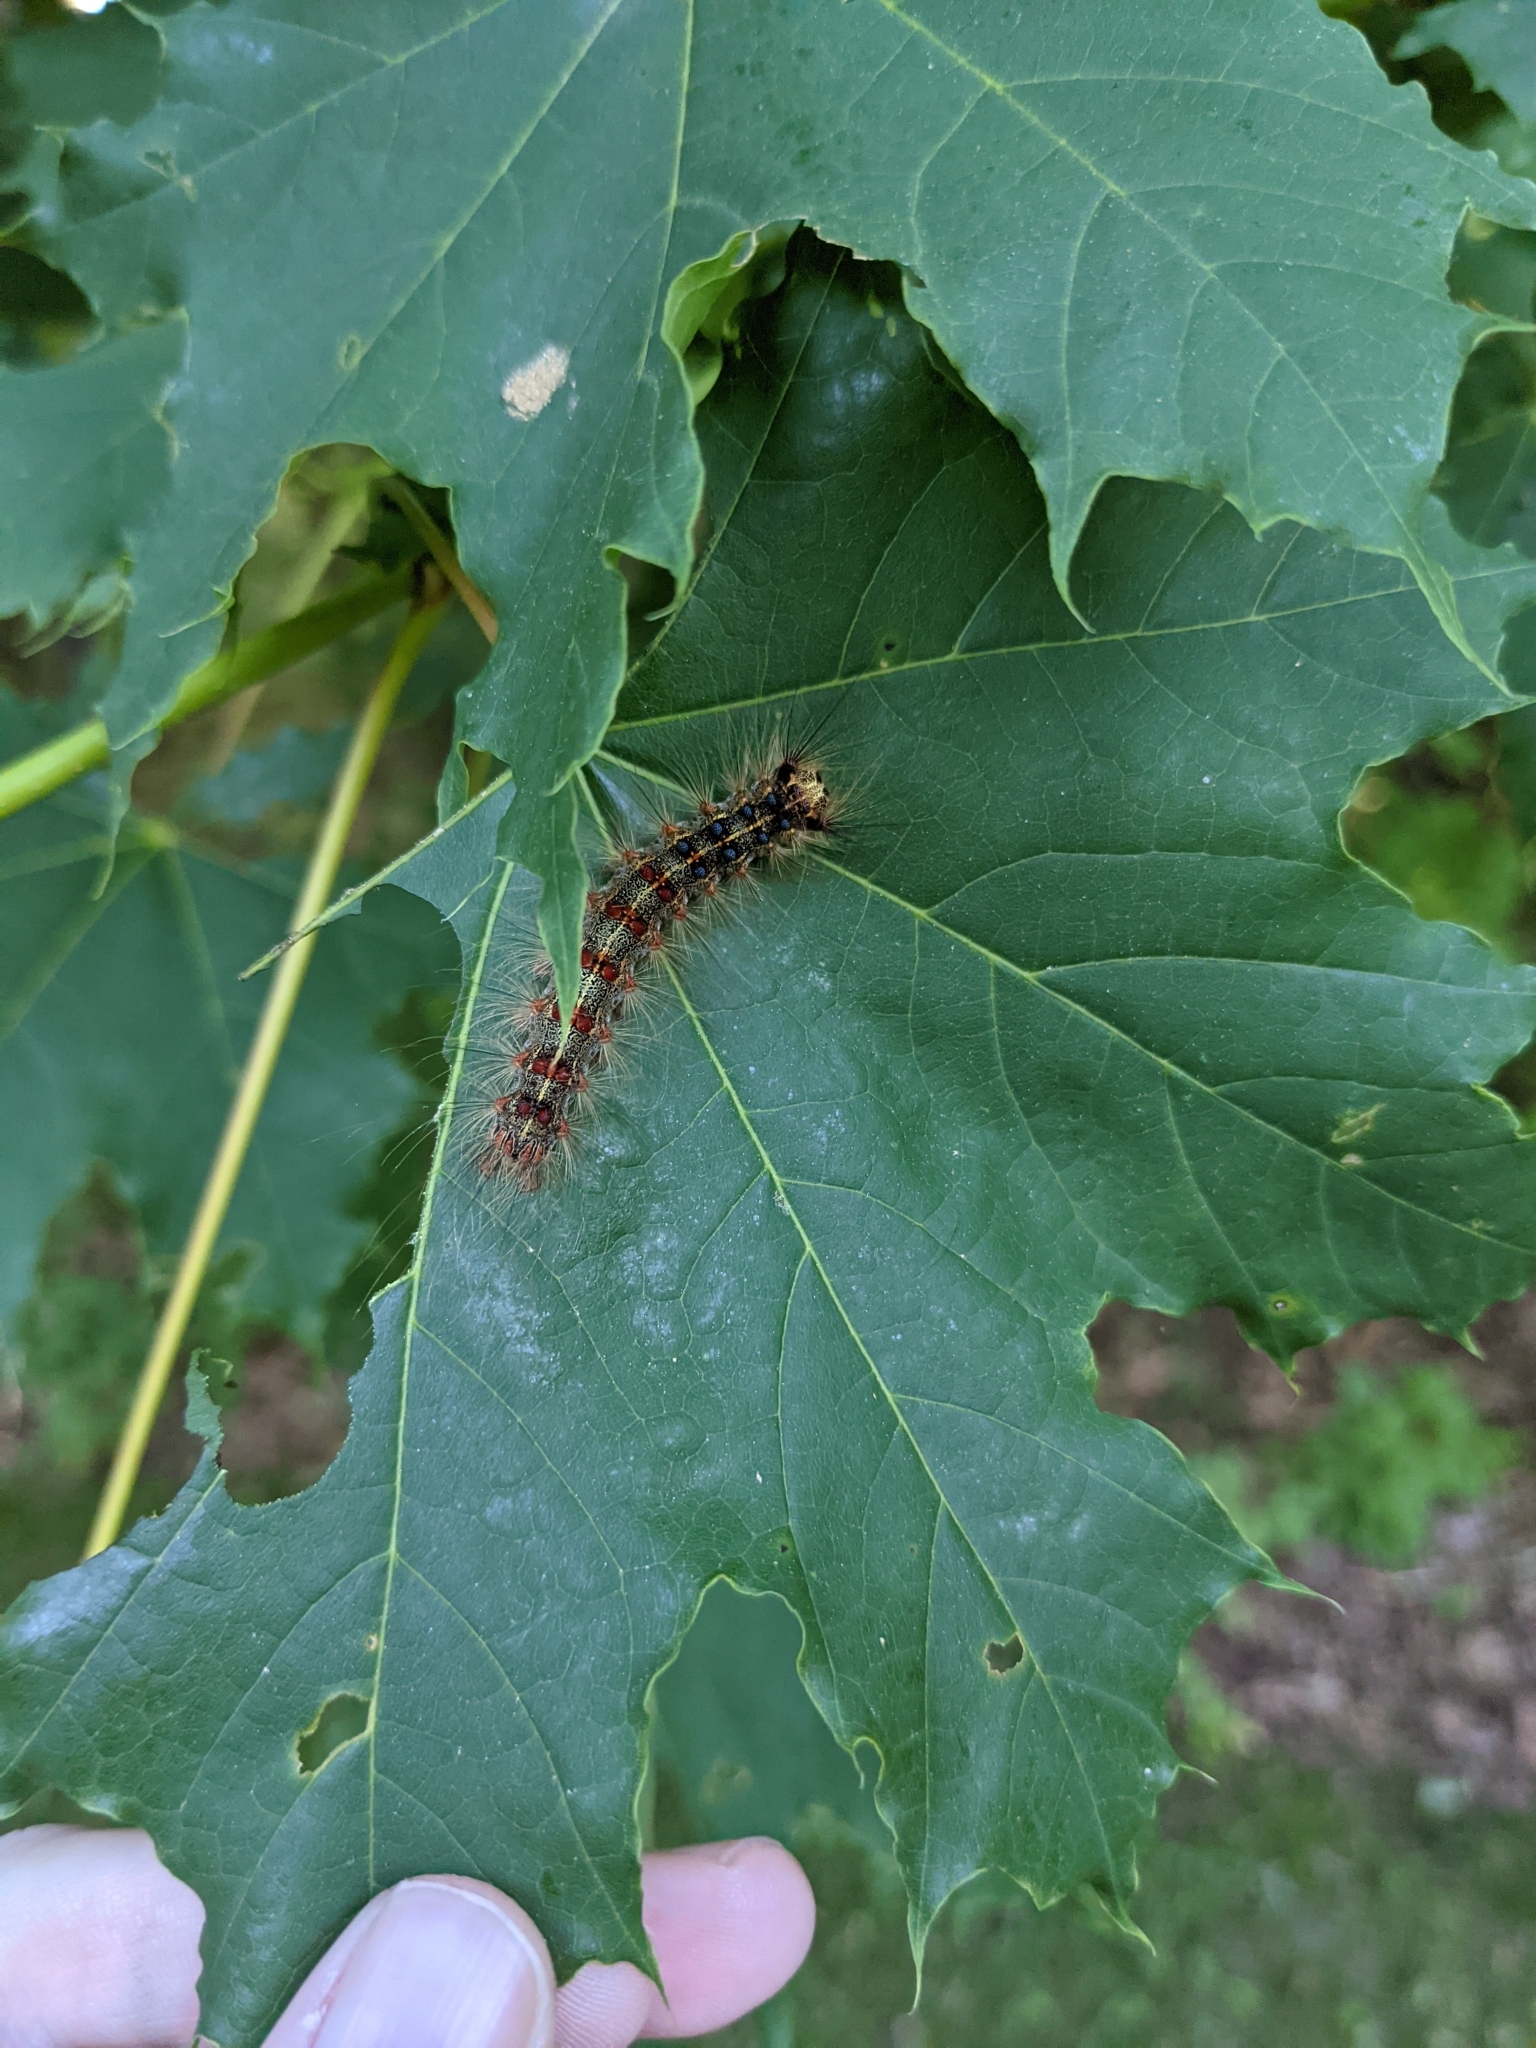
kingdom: Animalia
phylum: Arthropoda
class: Insecta
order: Lepidoptera
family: Erebidae
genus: Lymantria
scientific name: Lymantria dispar
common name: Gypsy moth
